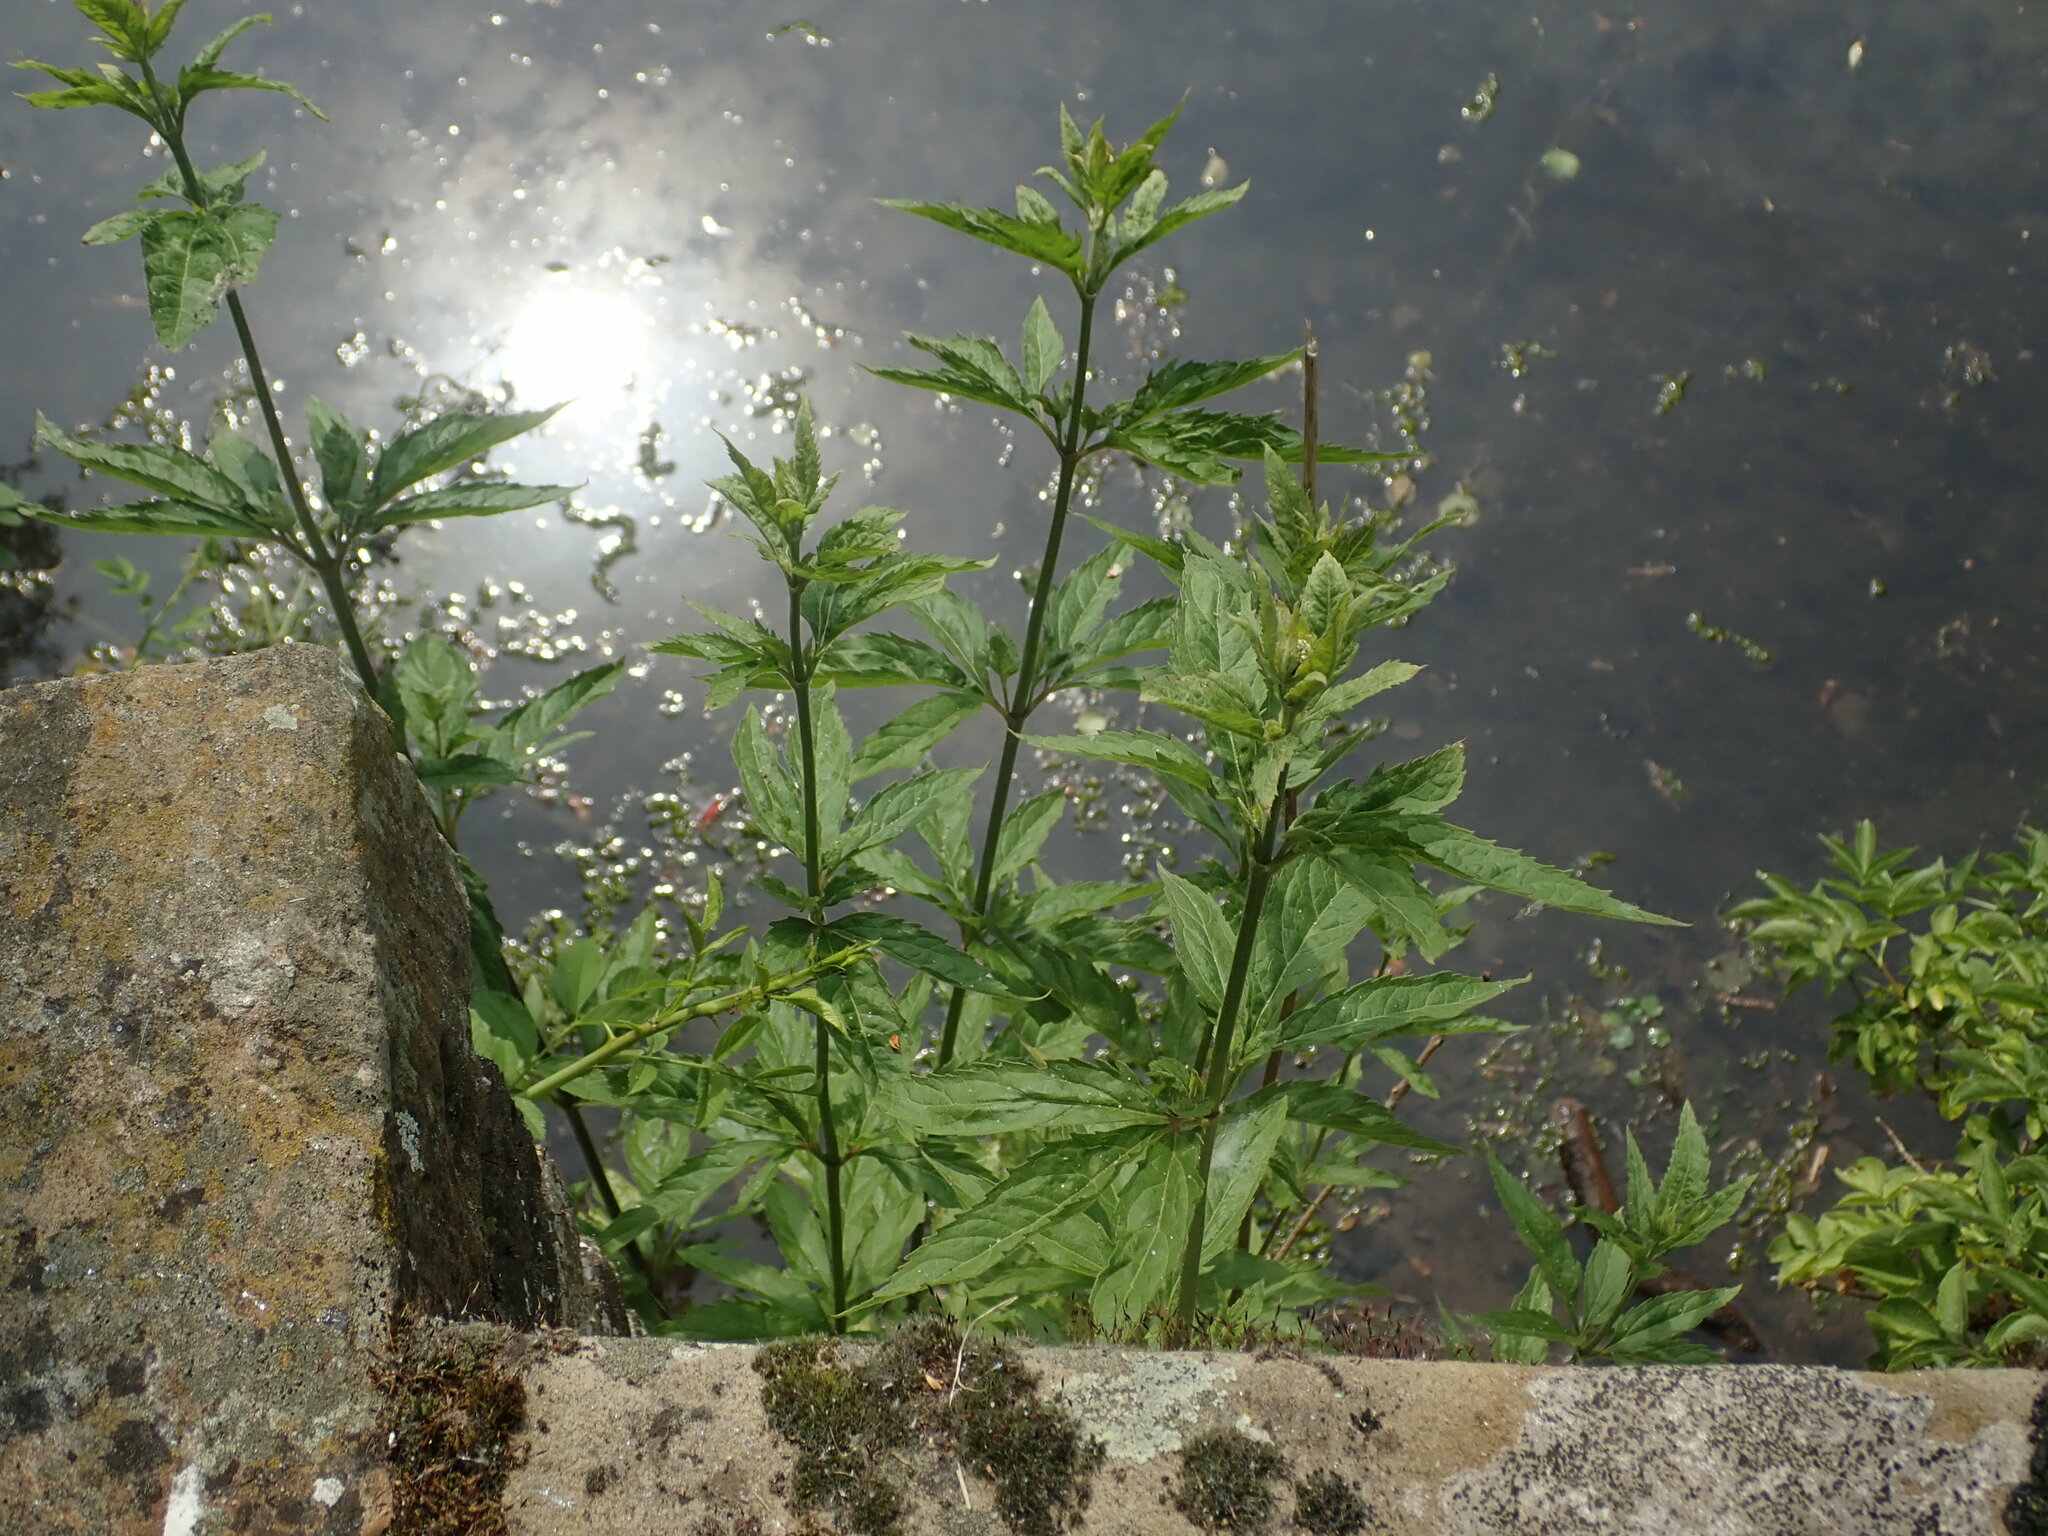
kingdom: Plantae
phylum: Tracheophyta
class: Magnoliopsida
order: Asterales
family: Asteraceae
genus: Eupatorium
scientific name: Eupatorium cannabinum
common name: Hemp-agrimony
